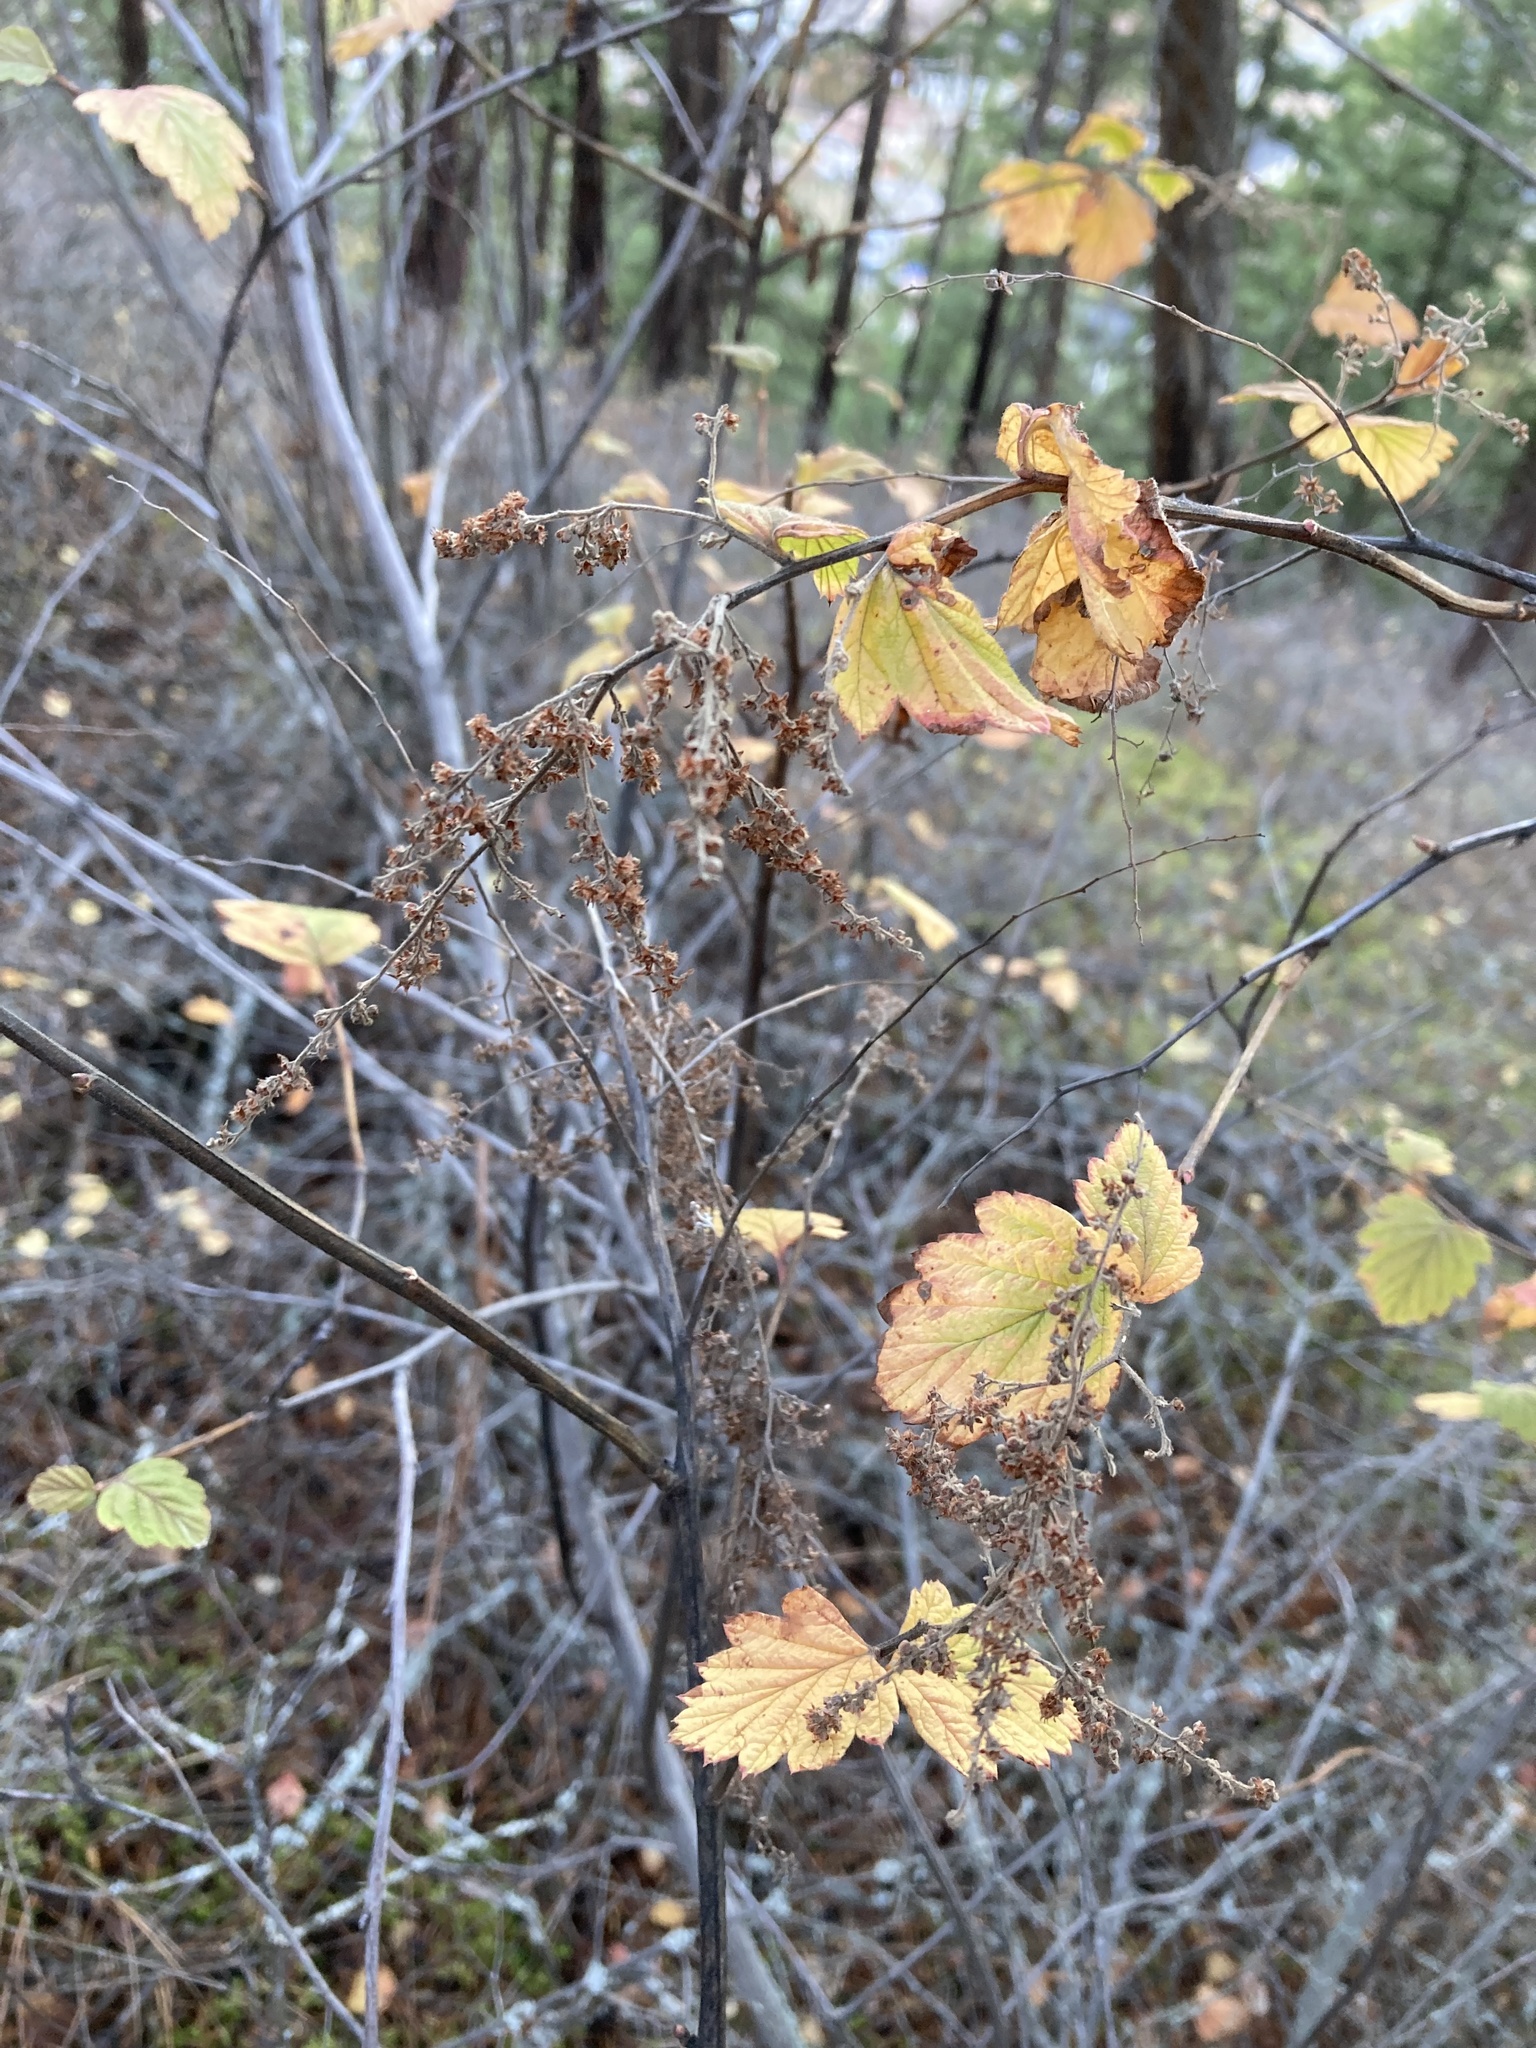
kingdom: Plantae
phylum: Tracheophyta
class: Magnoliopsida
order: Rosales
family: Rosaceae
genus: Holodiscus
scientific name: Holodiscus discolor
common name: Oceanspray
